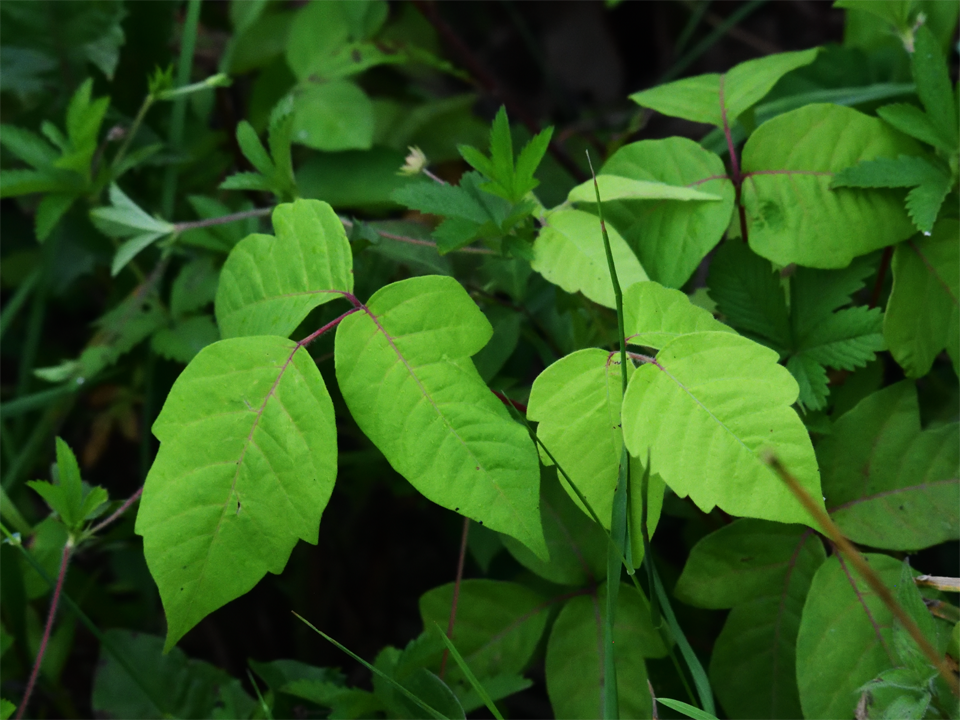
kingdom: Plantae
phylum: Tracheophyta
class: Magnoliopsida
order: Sapindales
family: Anacardiaceae
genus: Toxicodendron
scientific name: Toxicodendron radicans
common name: Poison ivy
